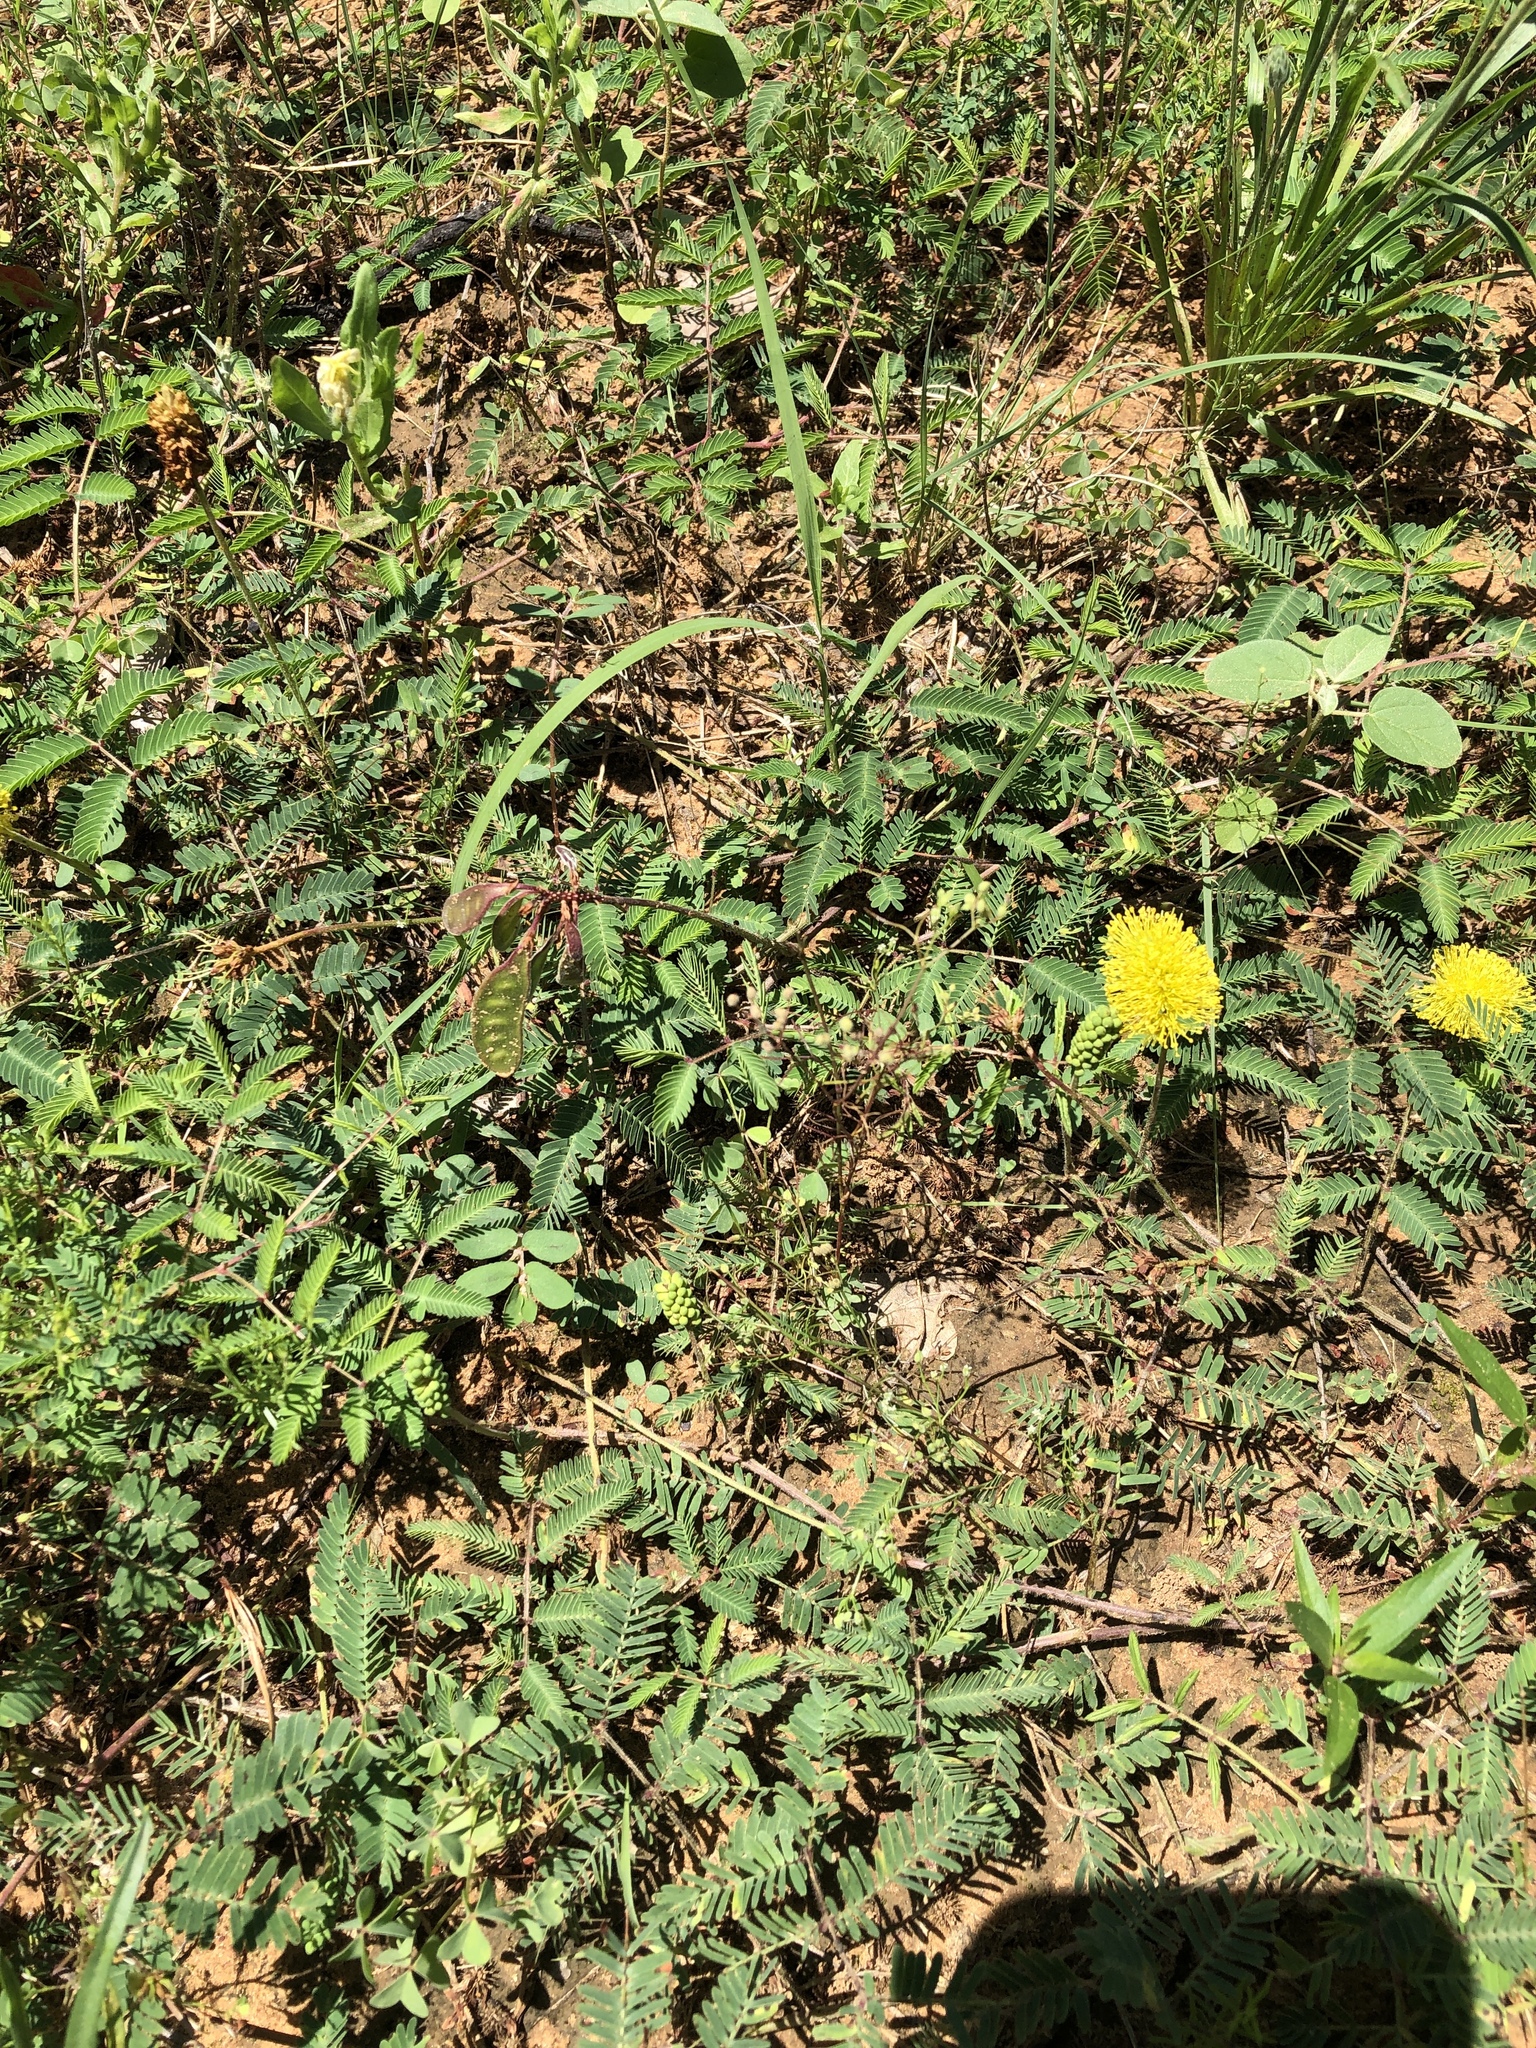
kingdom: Plantae
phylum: Tracheophyta
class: Magnoliopsida
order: Fabales
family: Fabaceae
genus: Neptunia
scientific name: Neptunia lutea
